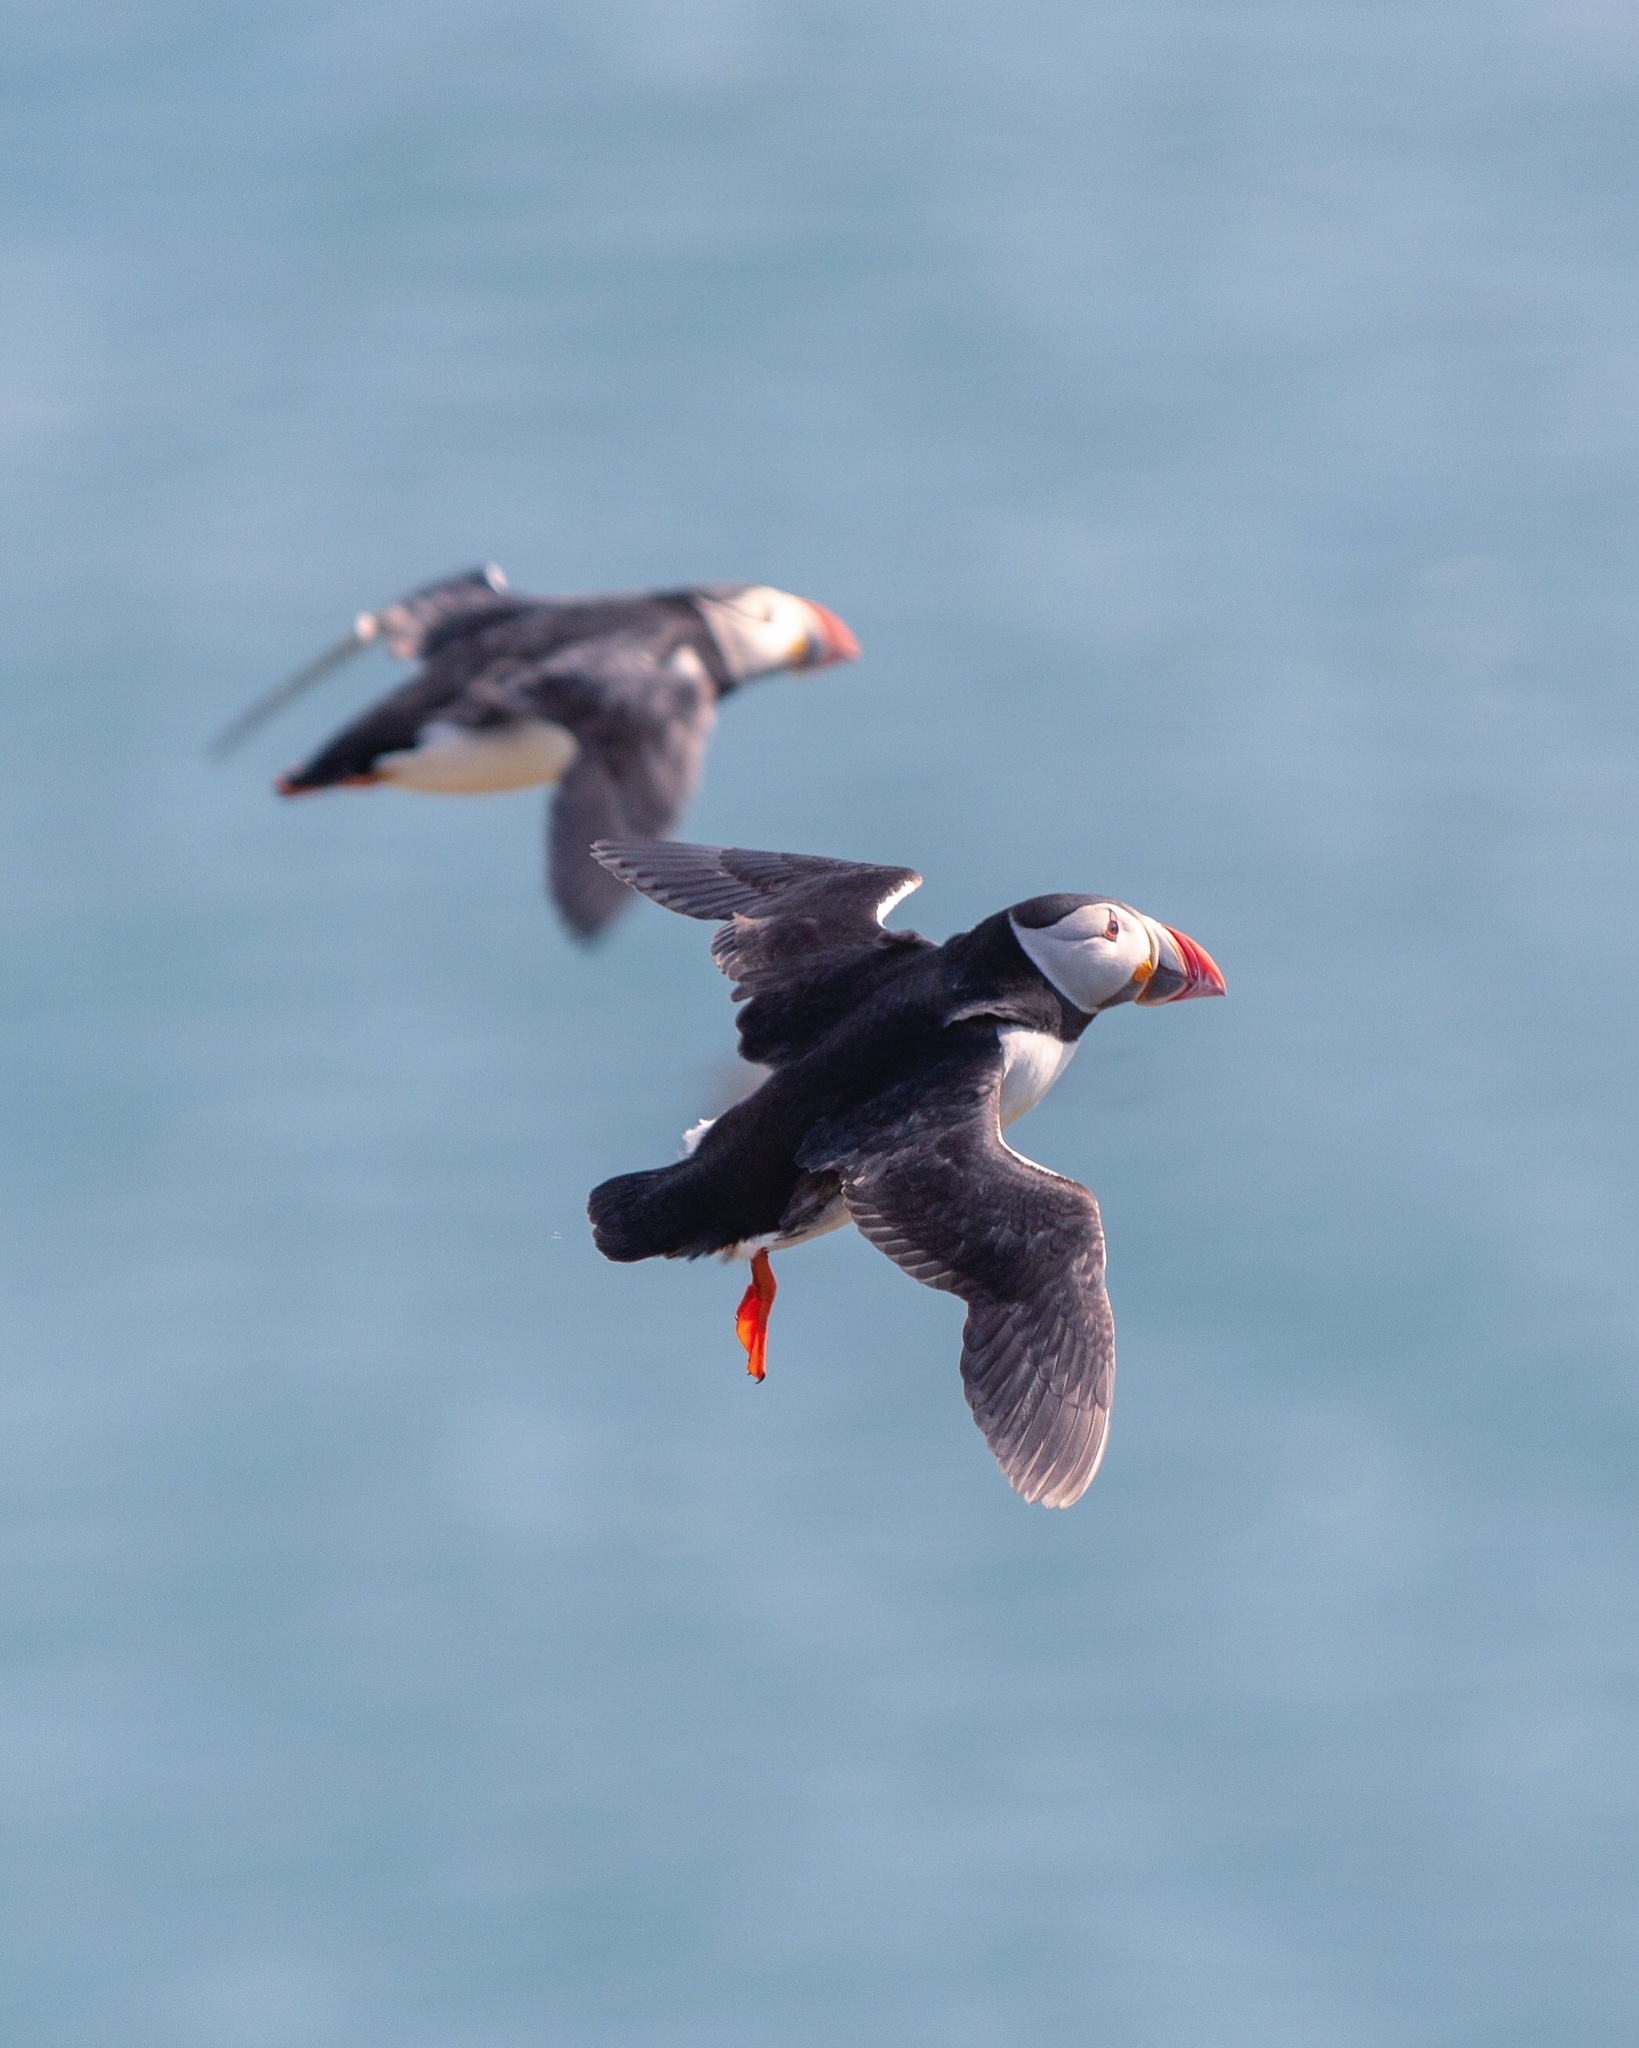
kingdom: Animalia
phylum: Chordata
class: Aves
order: Charadriiformes
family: Alcidae
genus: Fratercula
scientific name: Fratercula arctica
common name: Atlantic puffin
